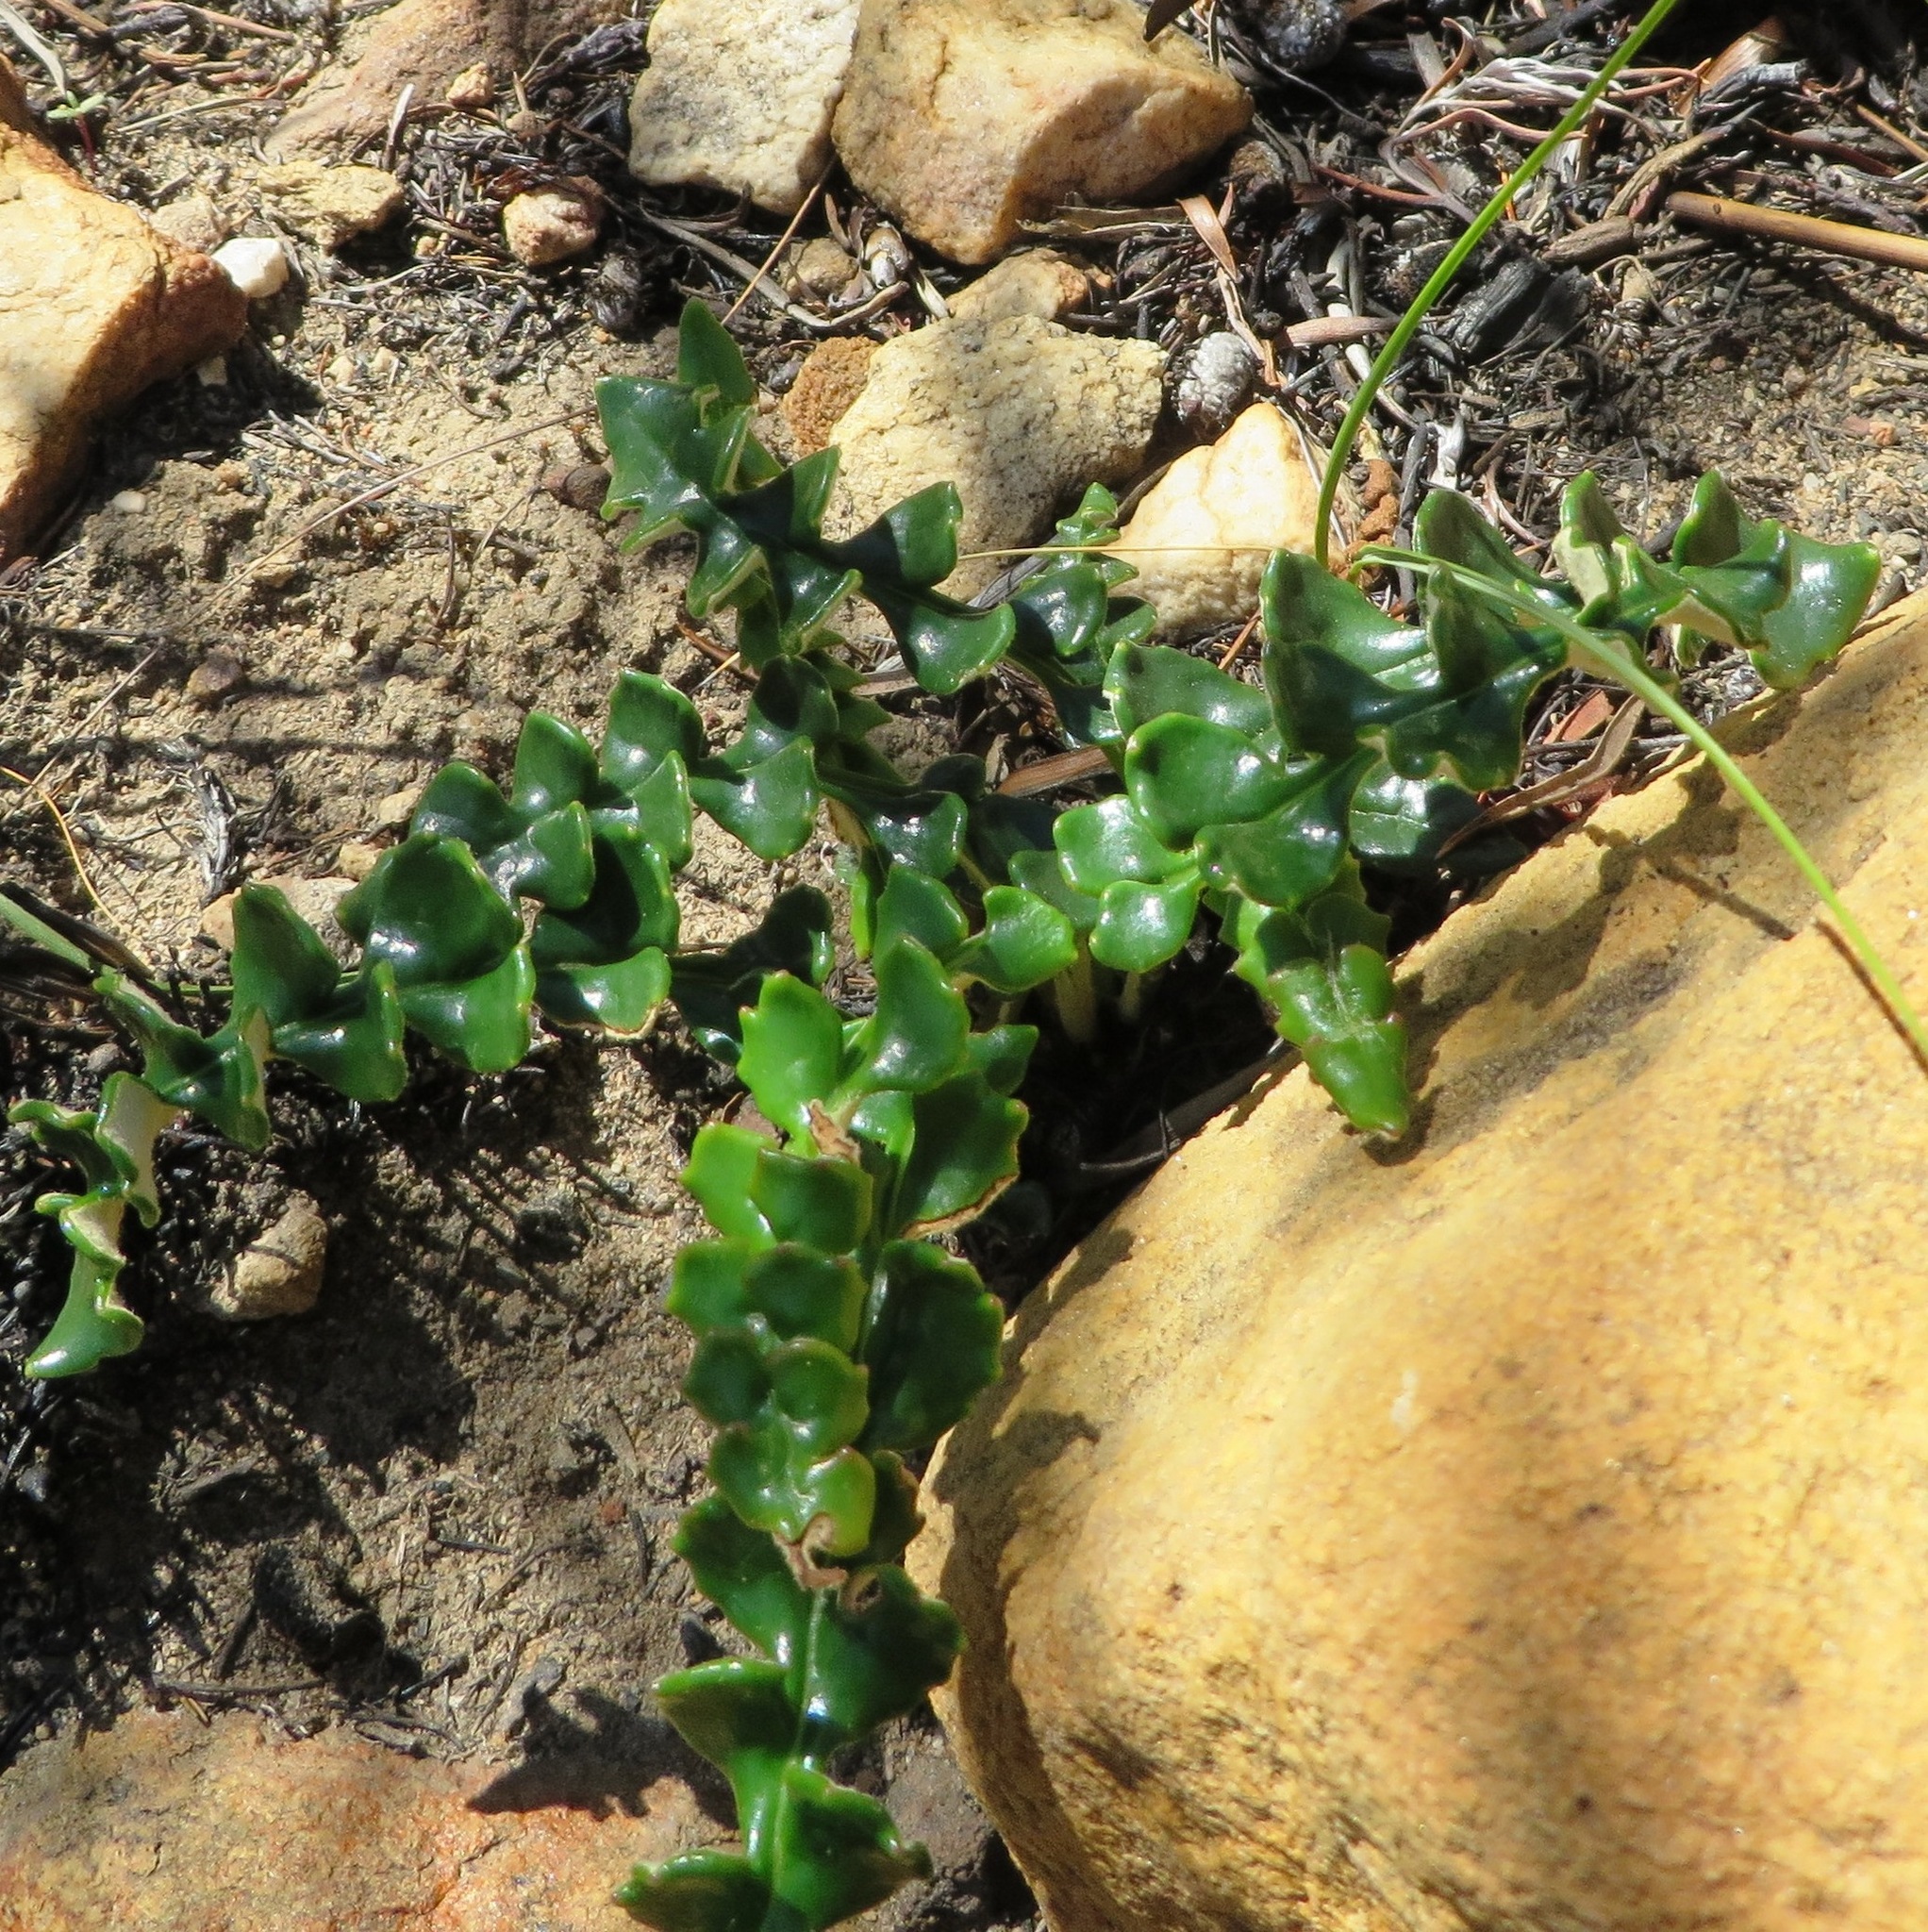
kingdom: Plantae
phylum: Tracheophyta
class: Magnoliopsida
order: Asterales
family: Asteraceae
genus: Gerbera
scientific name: Gerbera linnaei
